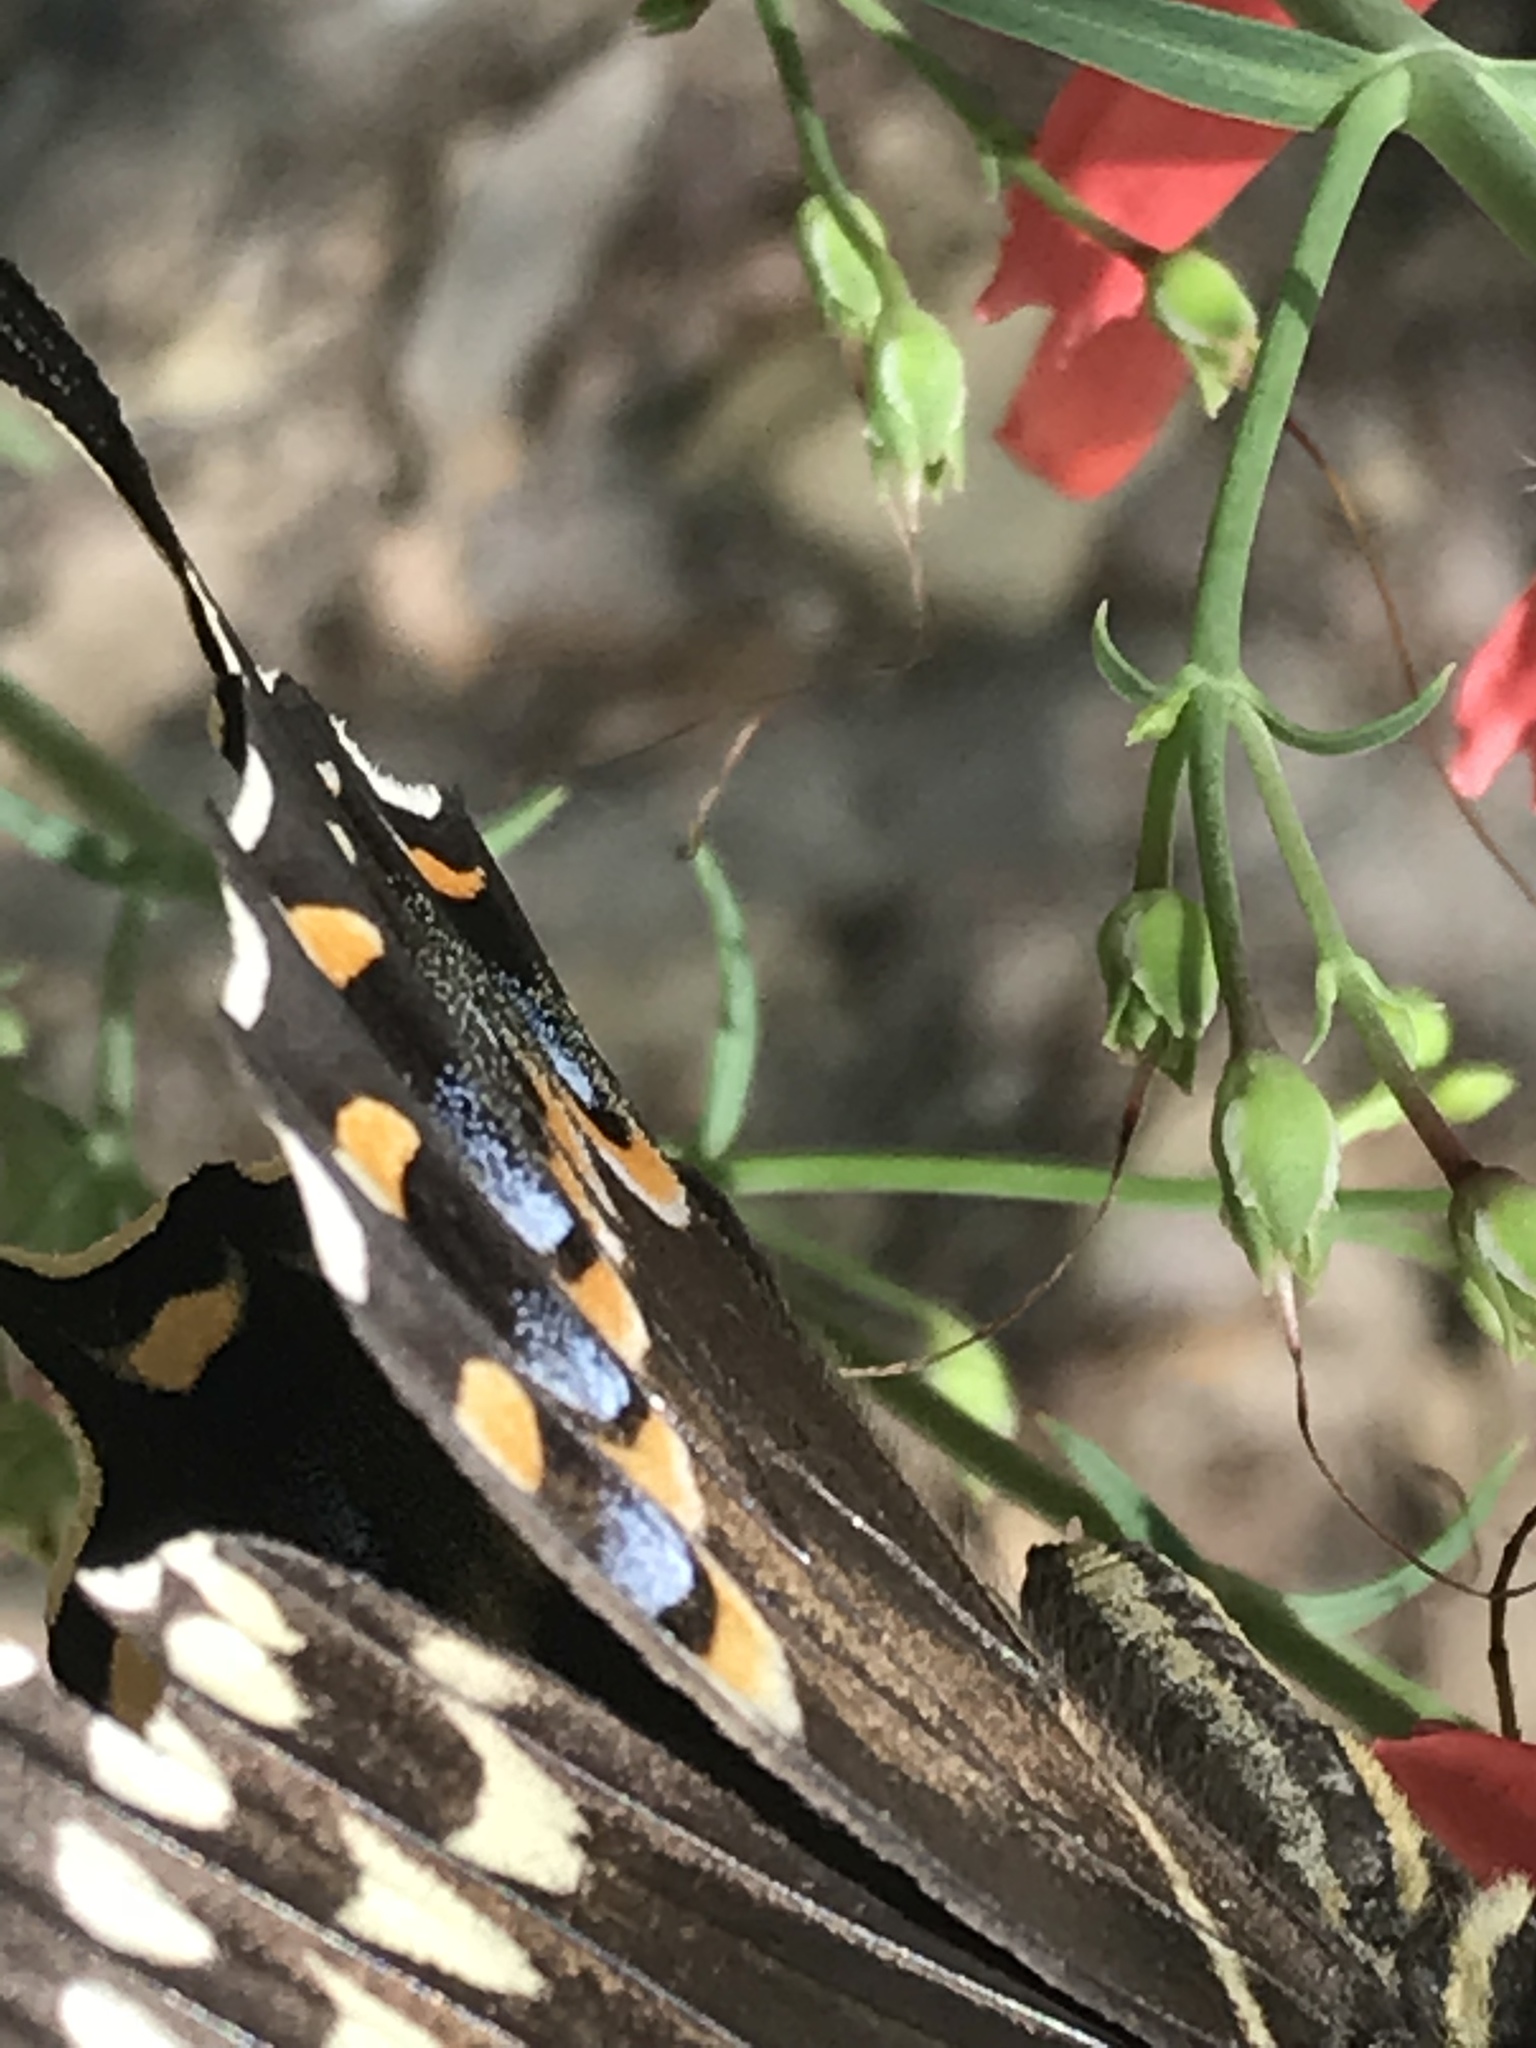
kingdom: Animalia
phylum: Arthropoda
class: Insecta
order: Lepidoptera
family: Papilionidae
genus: Papilio
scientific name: Papilio palamedes
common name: Palamedes swallowtail
